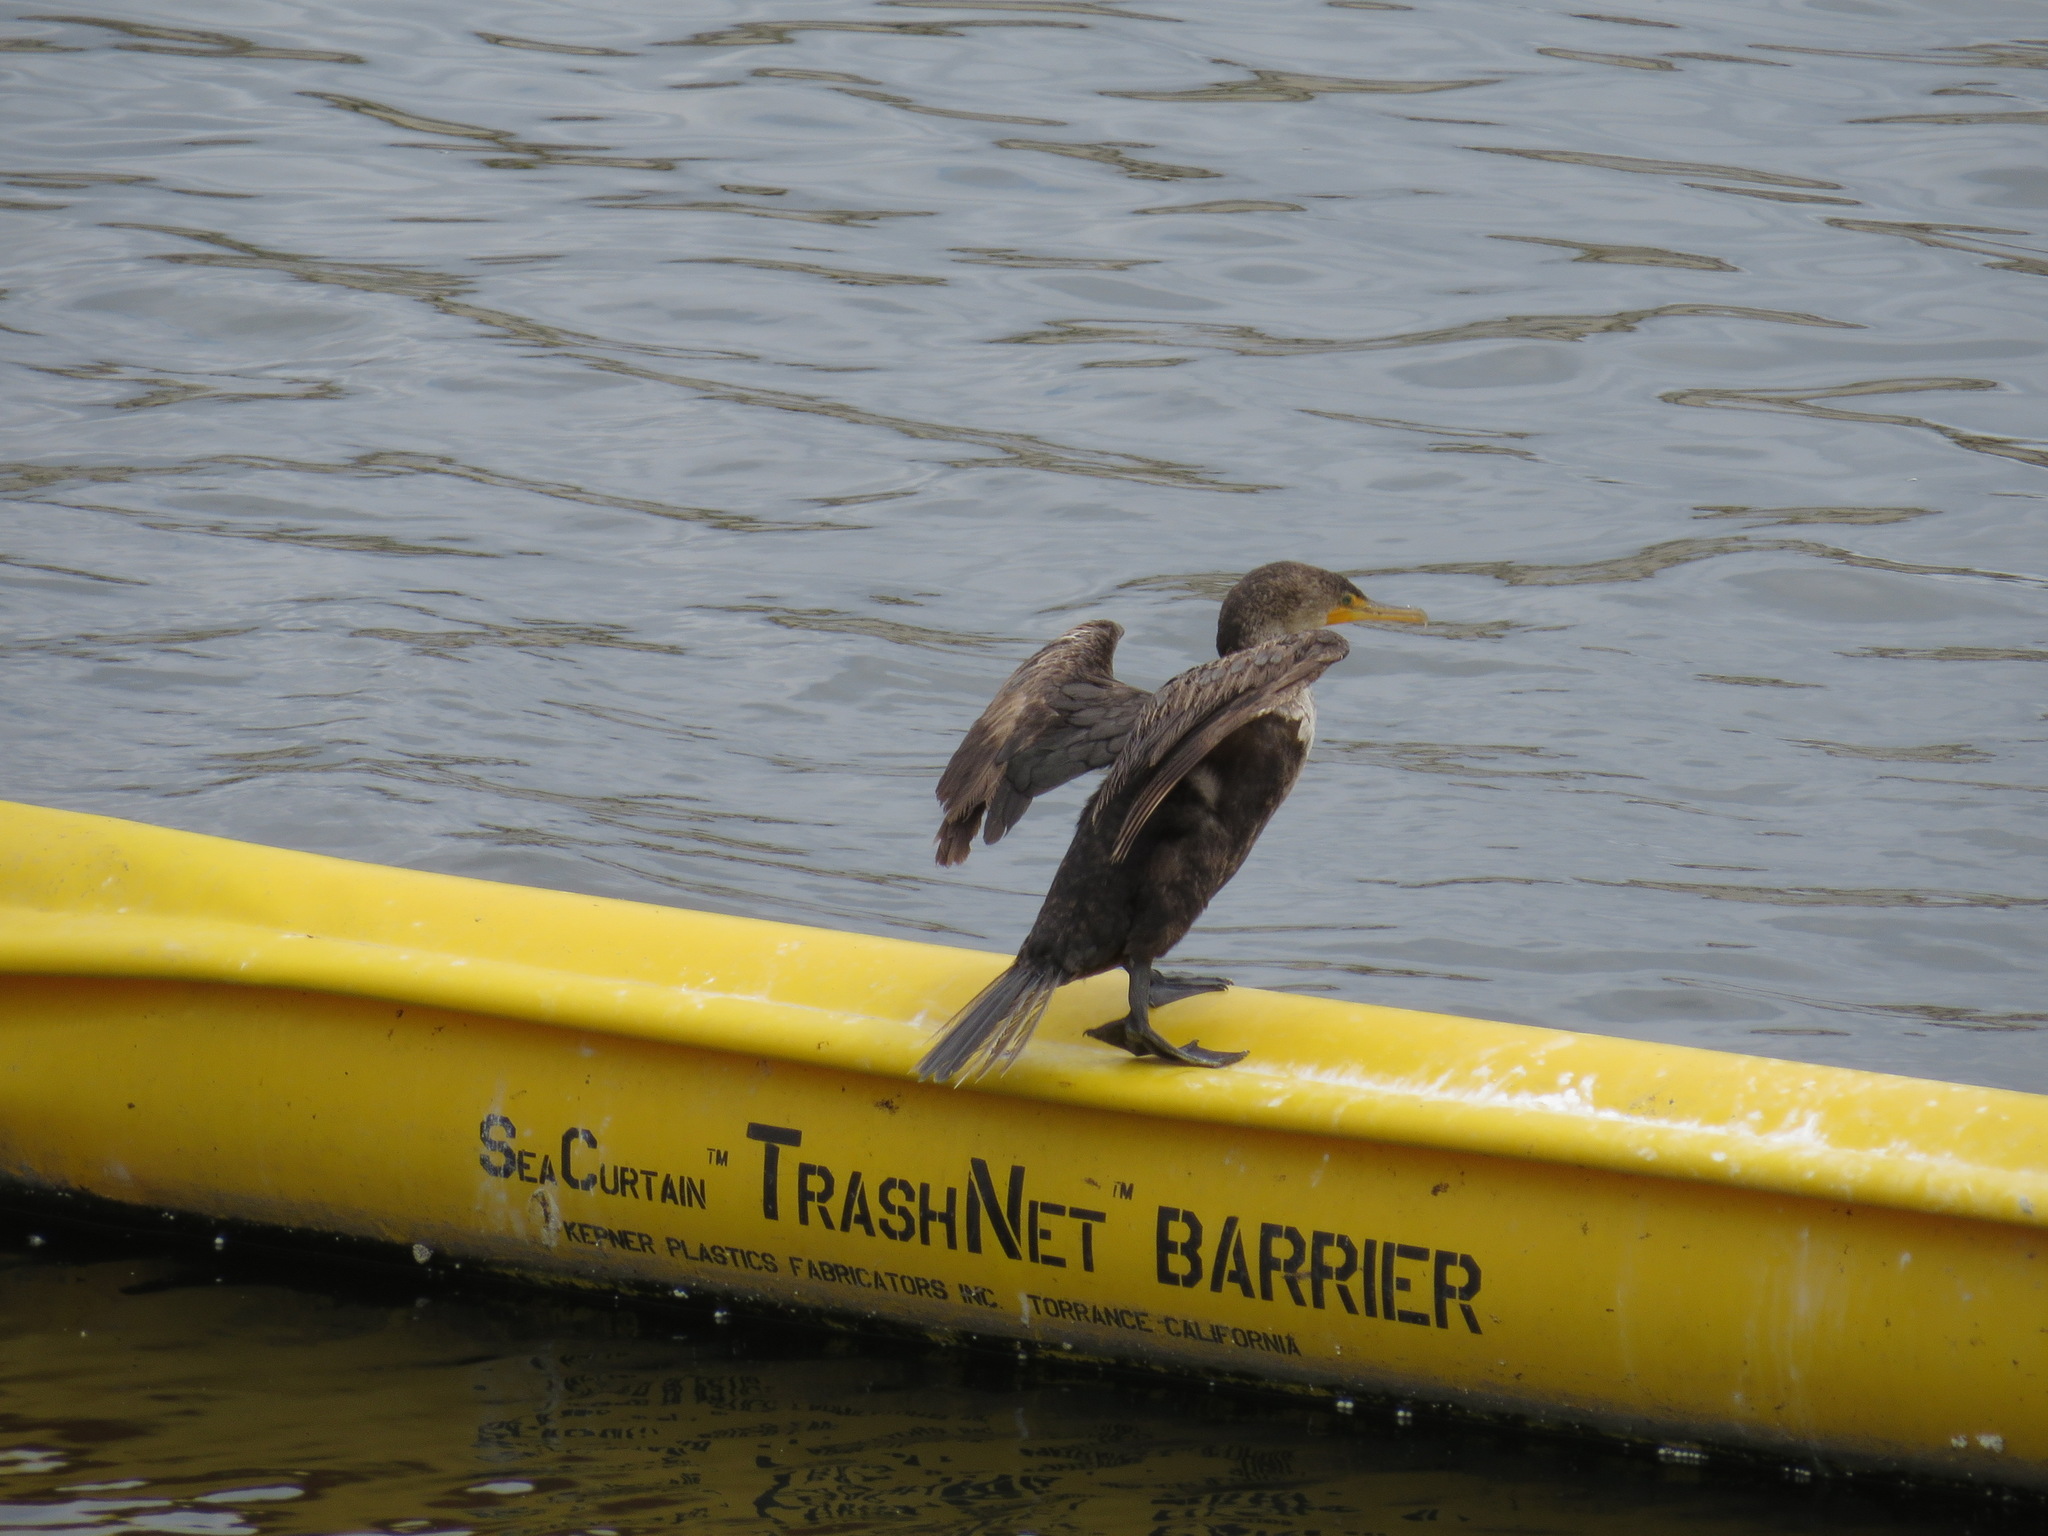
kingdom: Animalia
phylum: Chordata
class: Aves
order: Suliformes
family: Phalacrocoracidae
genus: Phalacrocorax
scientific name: Phalacrocorax auritus
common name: Double-crested cormorant
